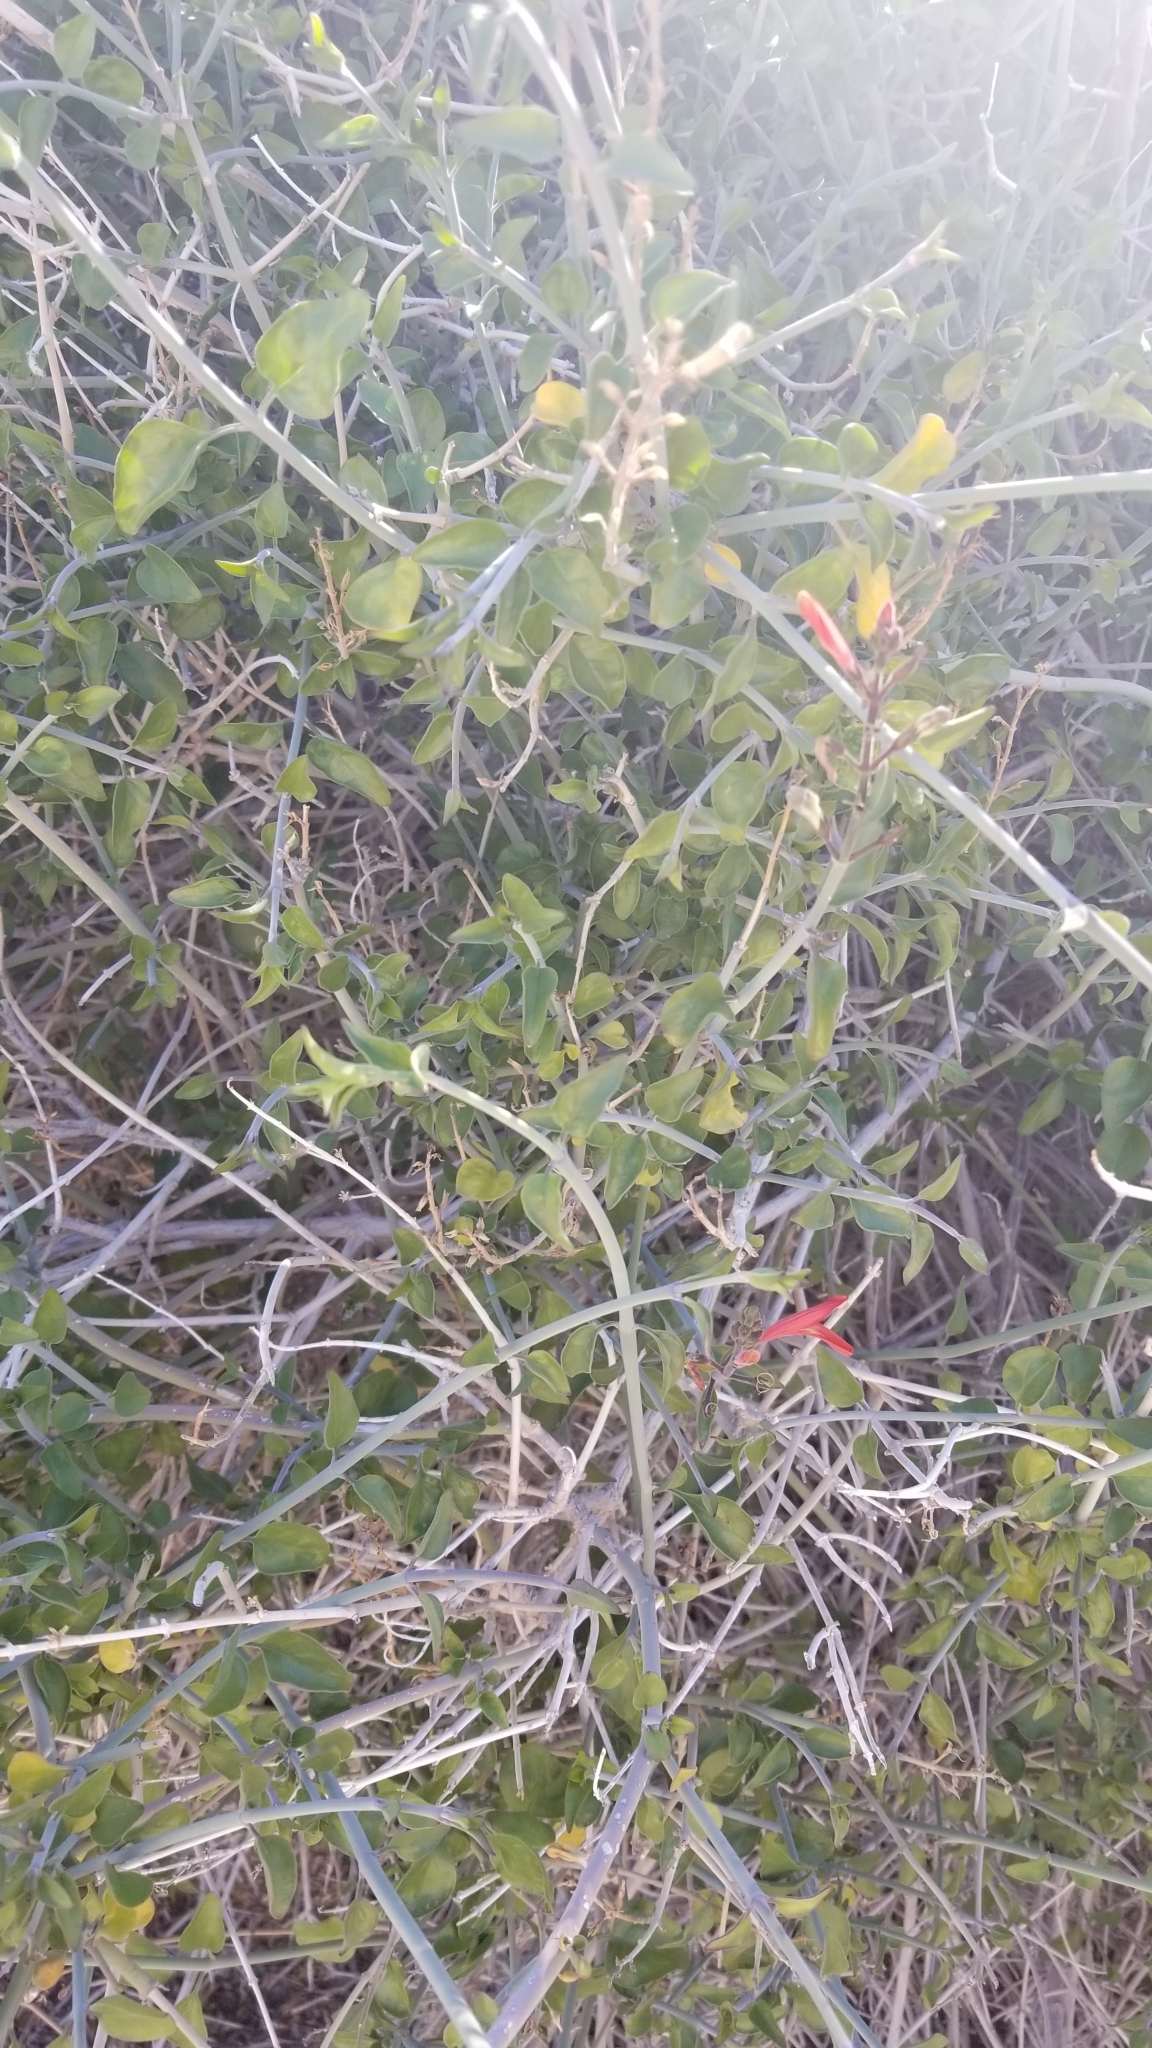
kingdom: Plantae
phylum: Tracheophyta
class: Magnoliopsida
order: Lamiales
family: Acanthaceae
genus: Justicia
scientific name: Justicia californica
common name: Chuparosa-honeysuckle
